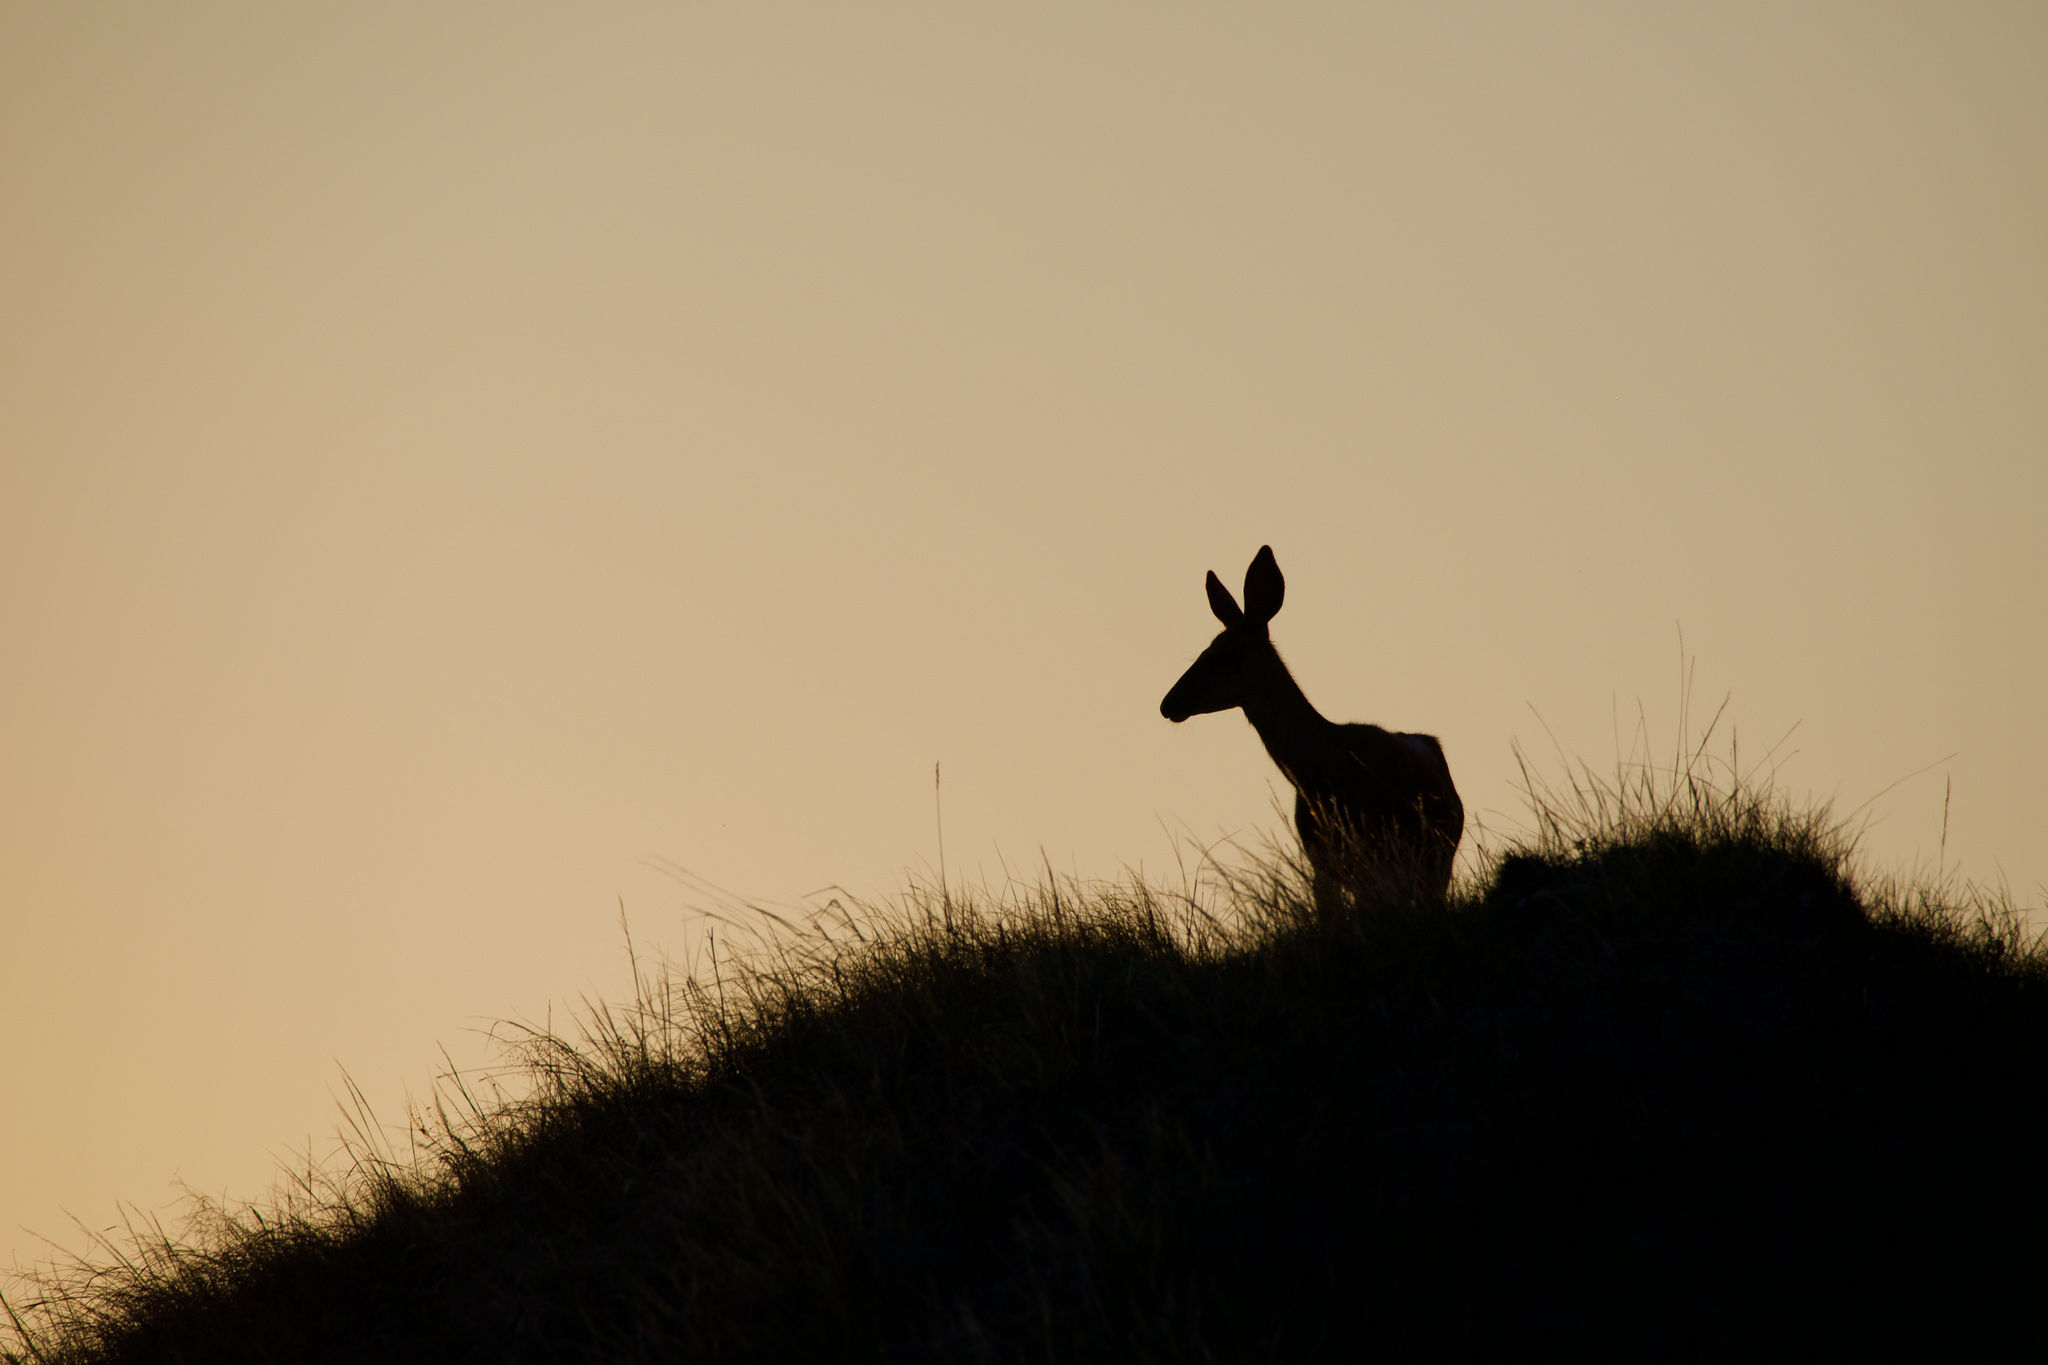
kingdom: Animalia
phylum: Chordata
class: Mammalia
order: Artiodactyla
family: Cervidae
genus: Odocoileus
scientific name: Odocoileus hemionus
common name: Mule deer
